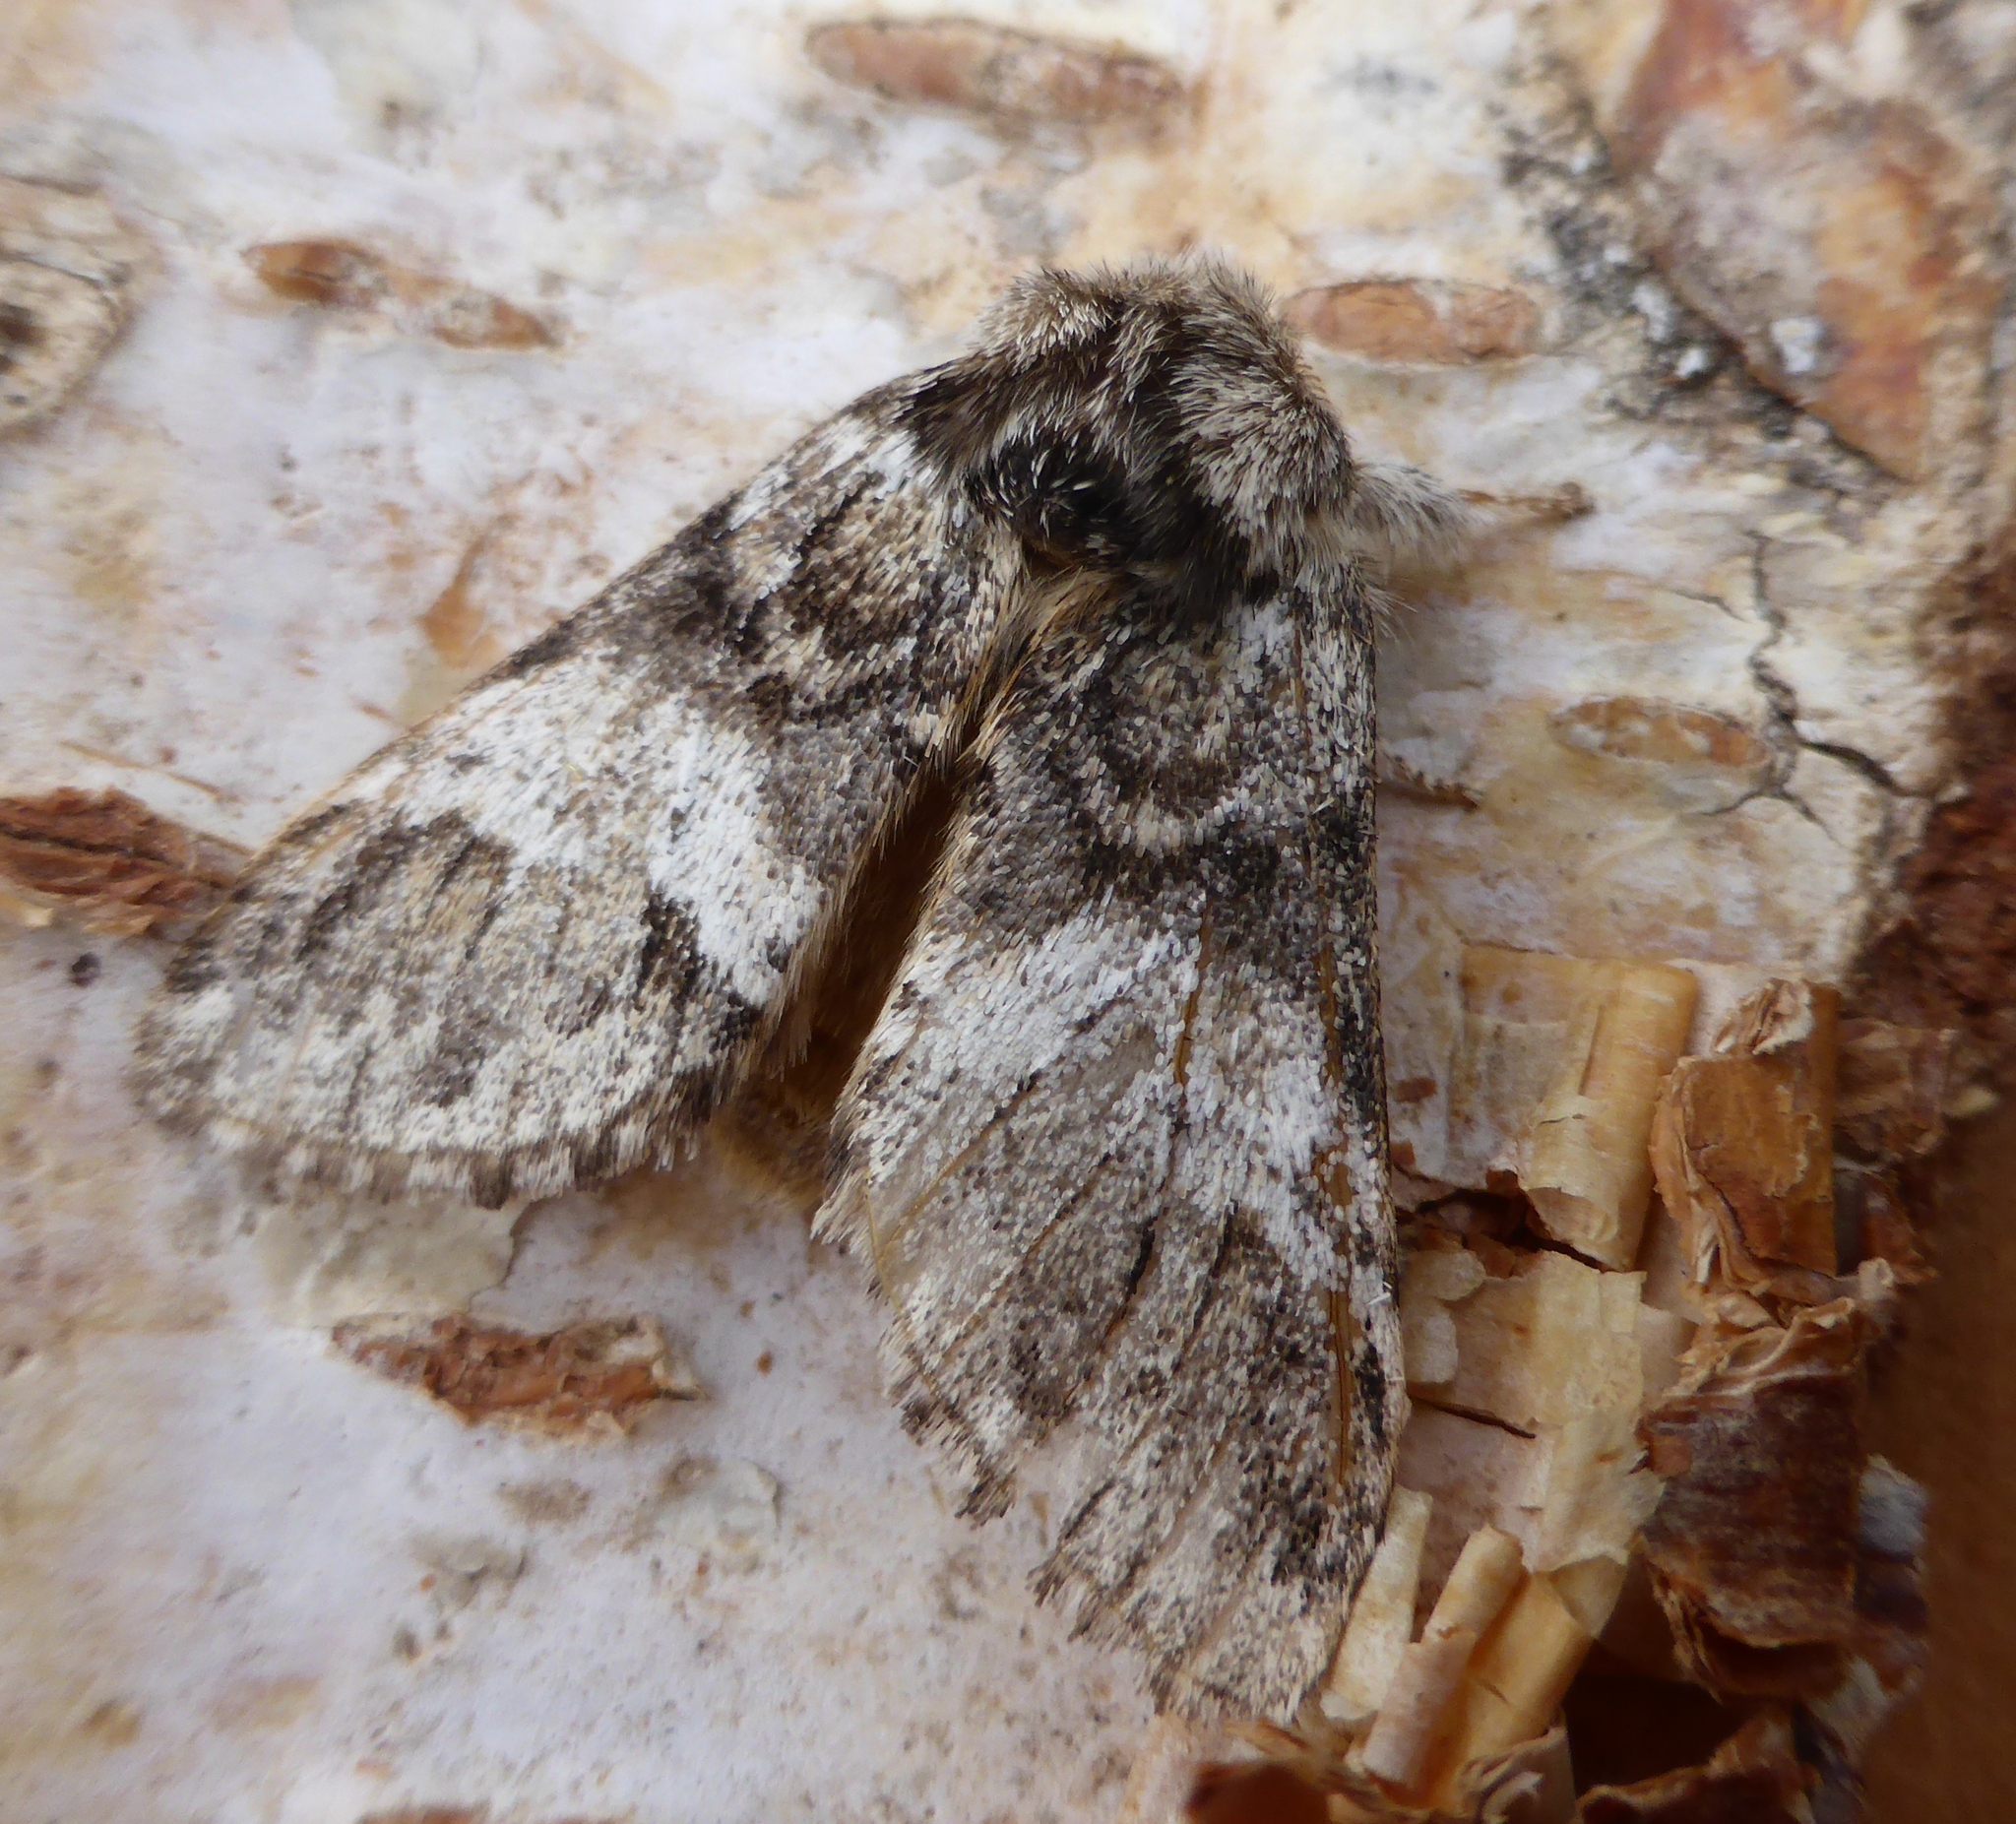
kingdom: Animalia
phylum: Arthropoda
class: Insecta
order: Lepidoptera
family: Notodontidae
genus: Drymonia
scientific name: Drymonia dodonaea
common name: Marbled brown
